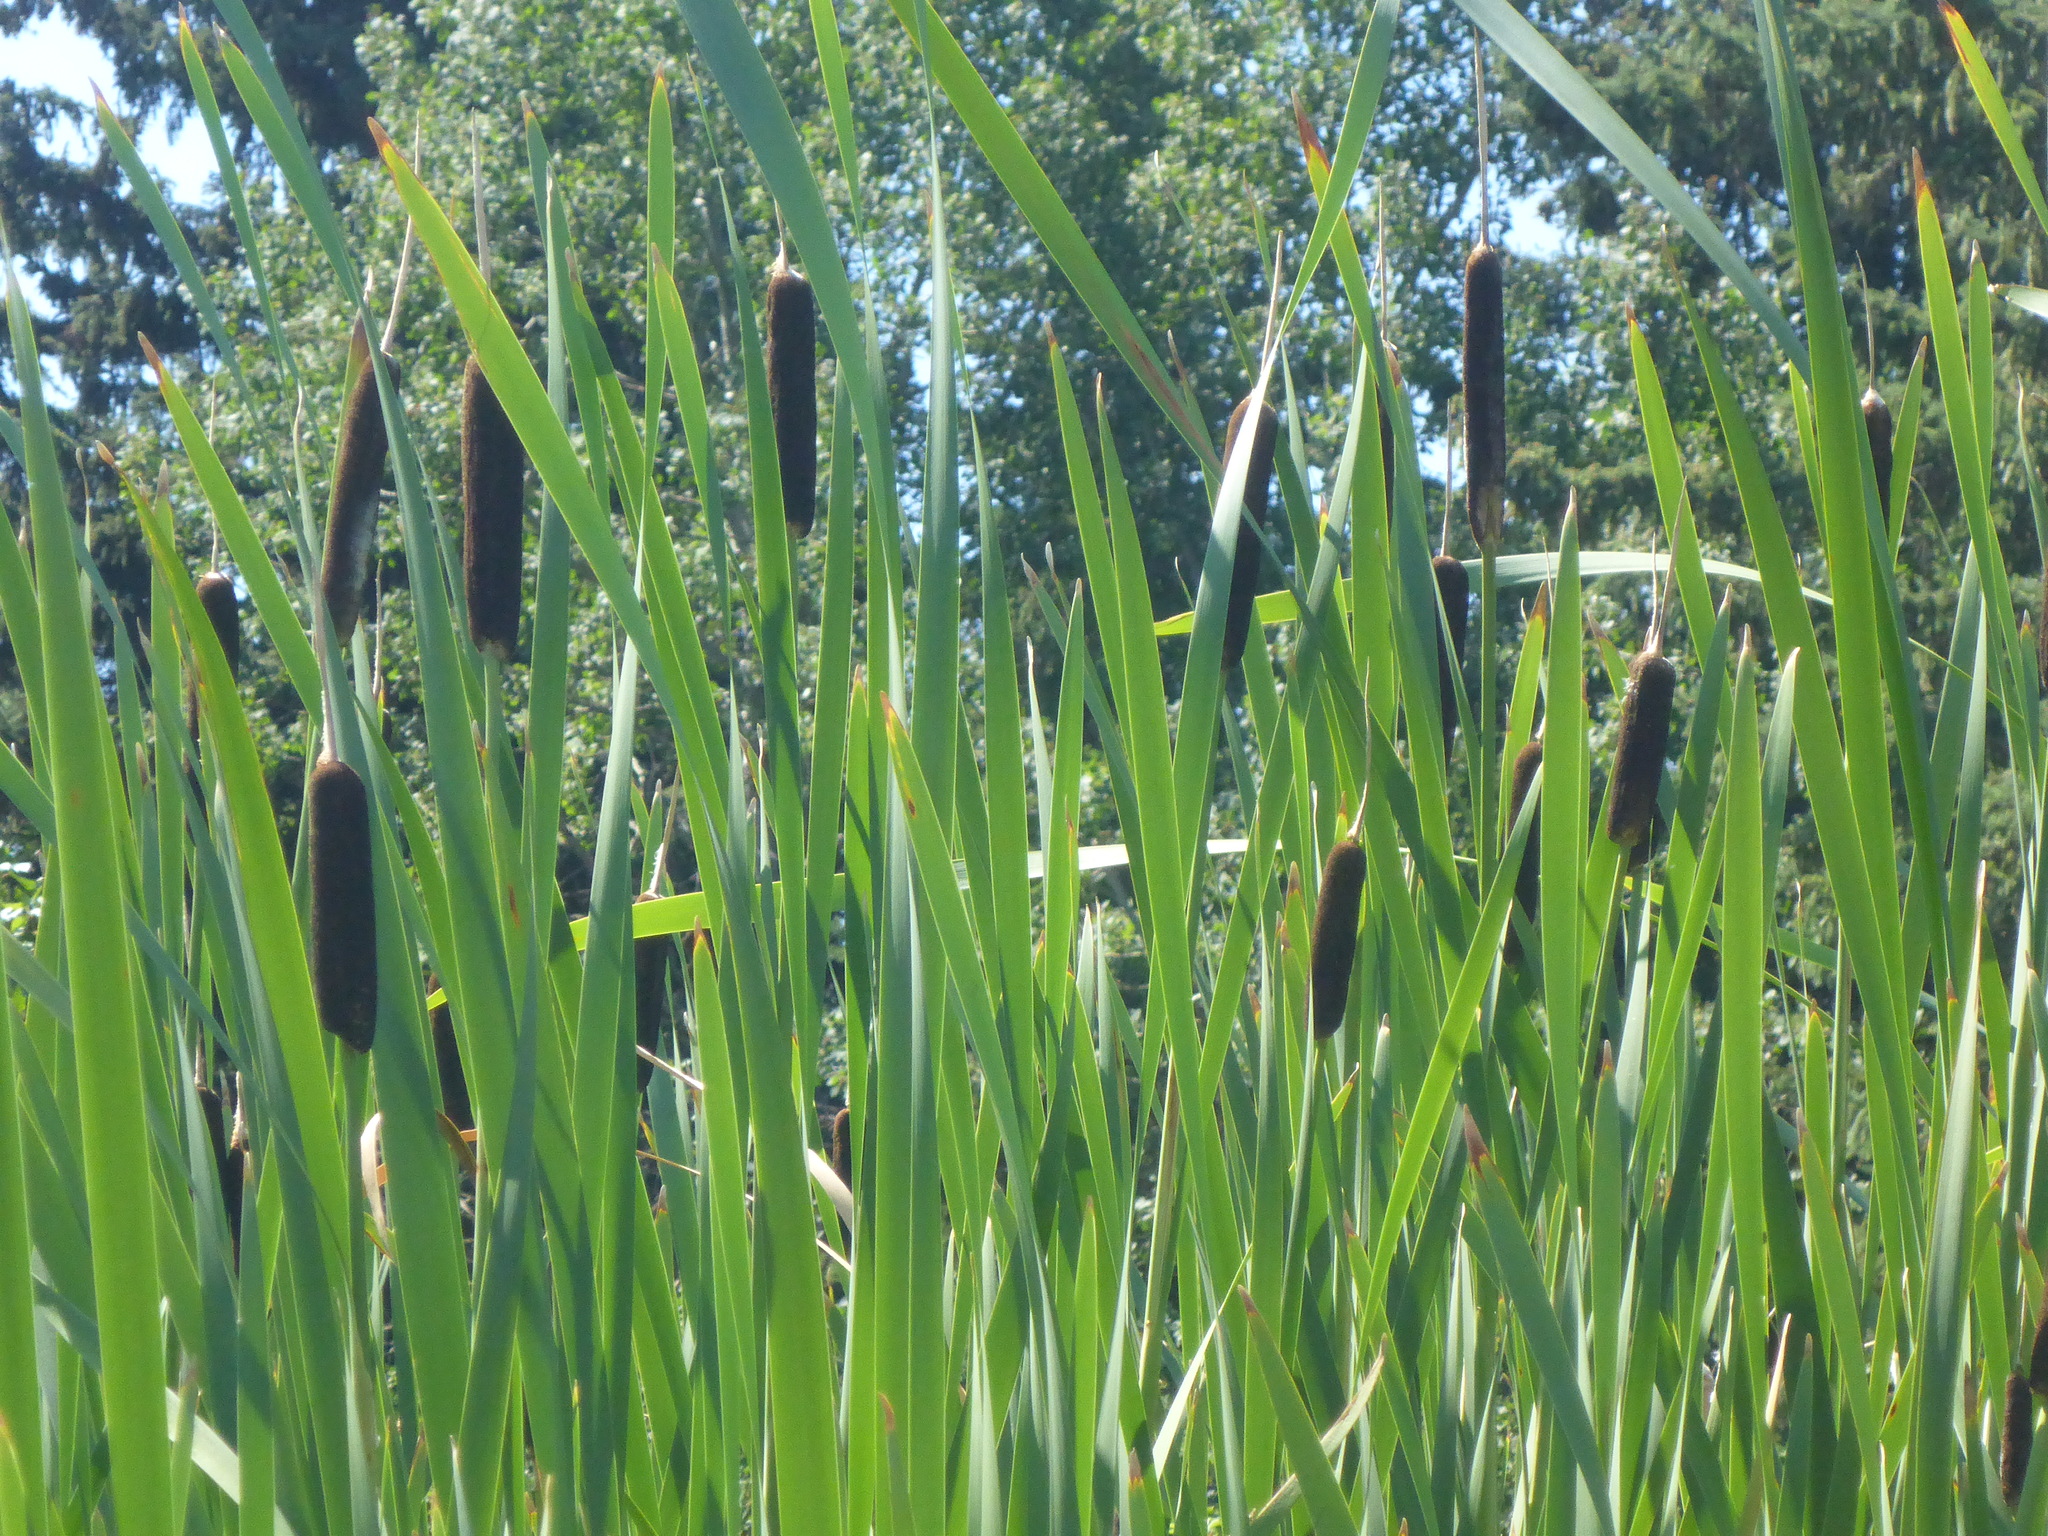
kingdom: Plantae
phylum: Tracheophyta
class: Liliopsida
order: Poales
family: Typhaceae
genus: Typha
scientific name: Typha latifolia
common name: Broadleaf cattail
